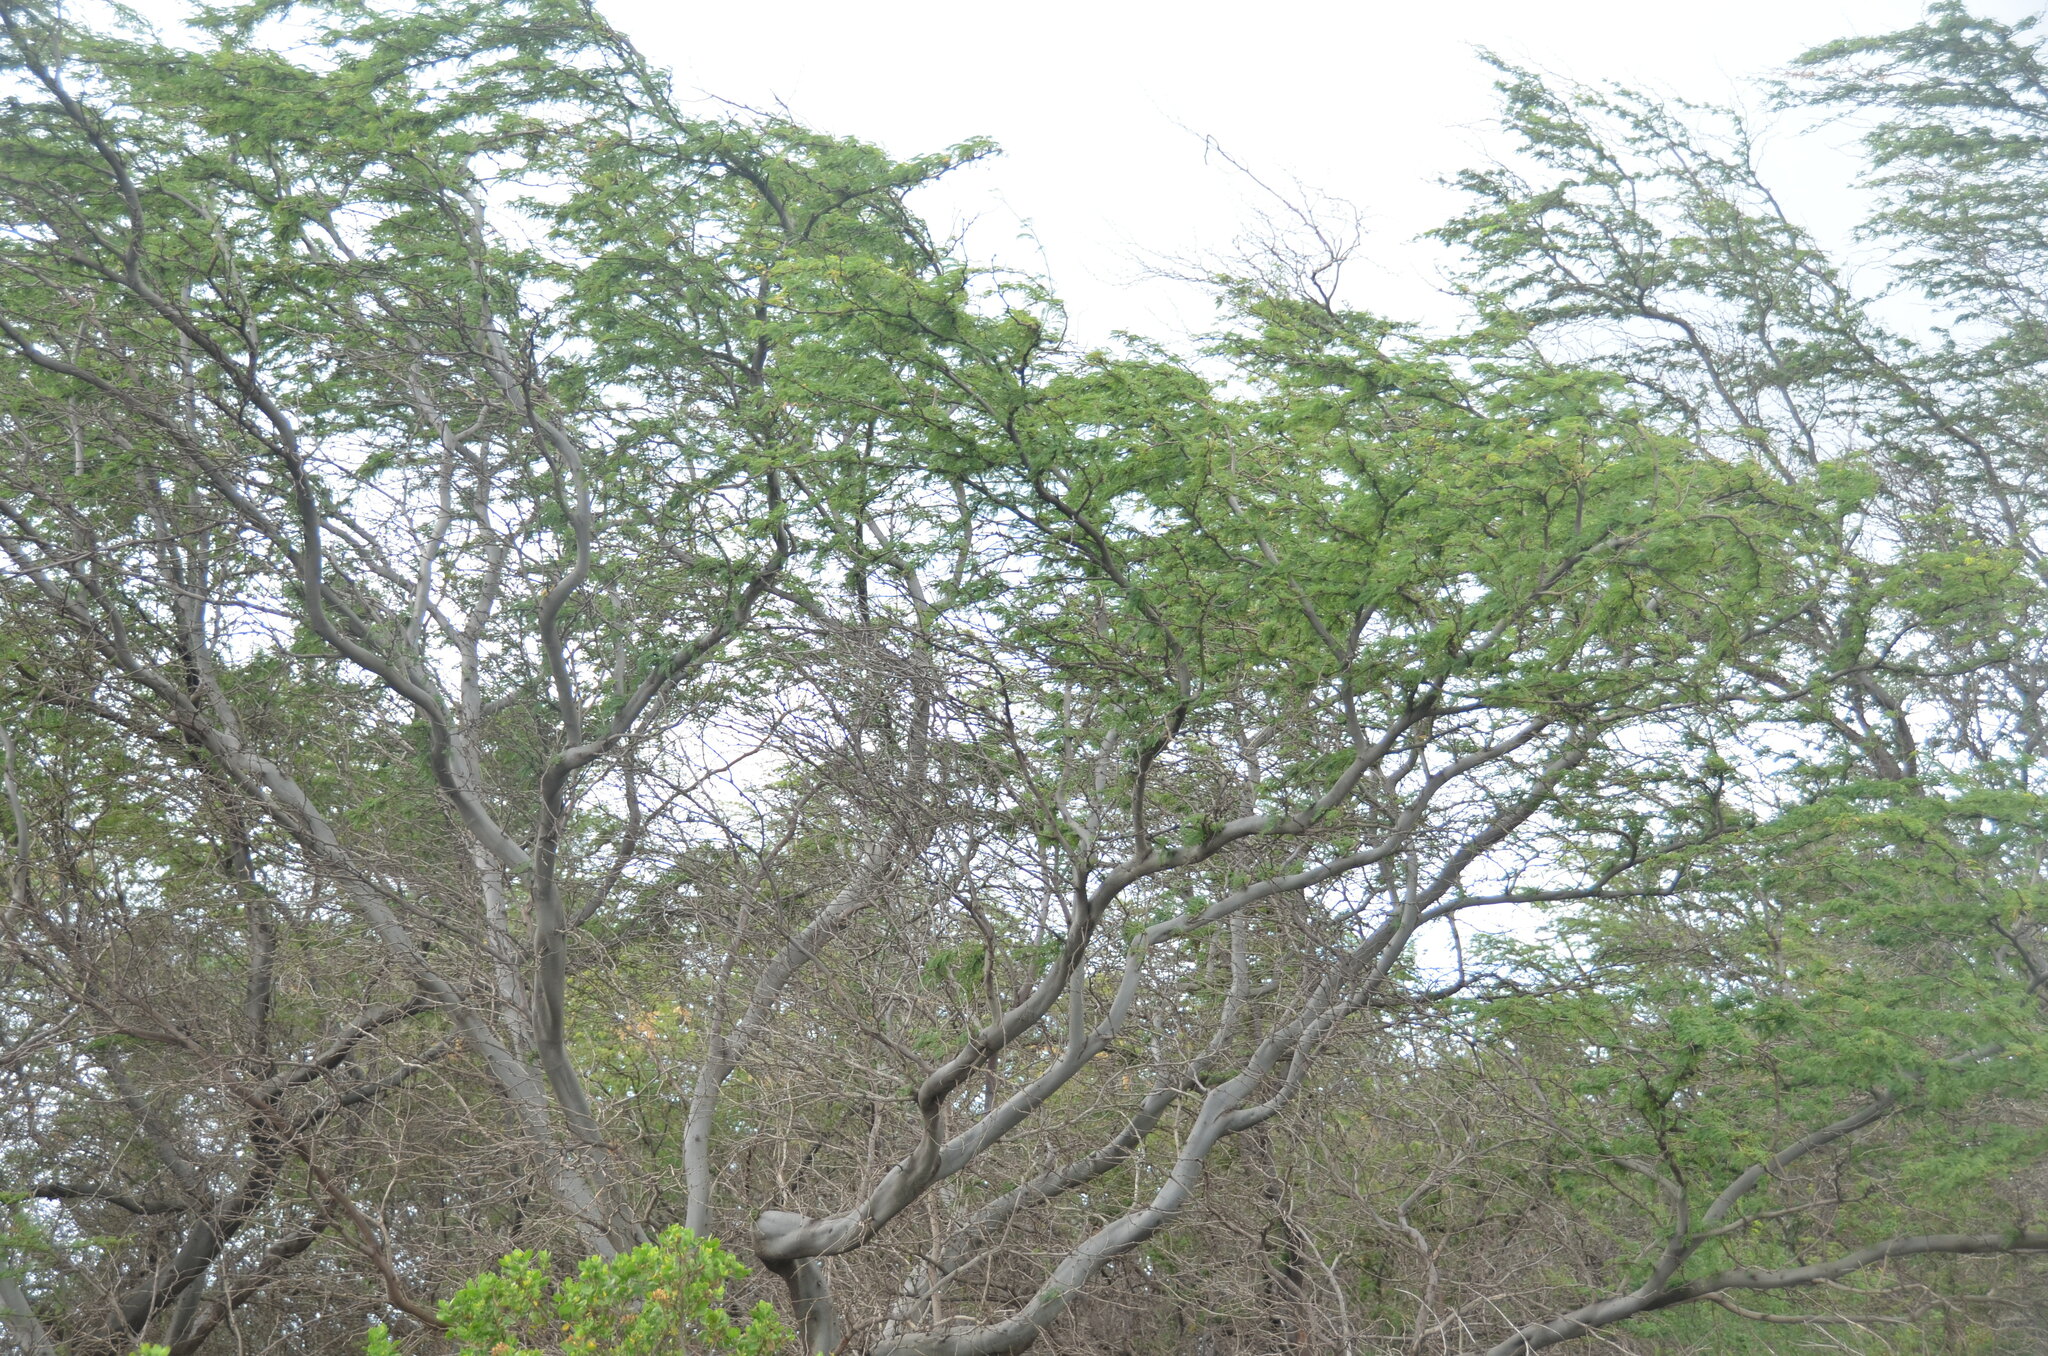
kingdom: Plantae
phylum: Tracheophyta
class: Magnoliopsida
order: Fabales
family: Fabaceae
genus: Prosopis
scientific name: Prosopis pallida
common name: Mesquite
